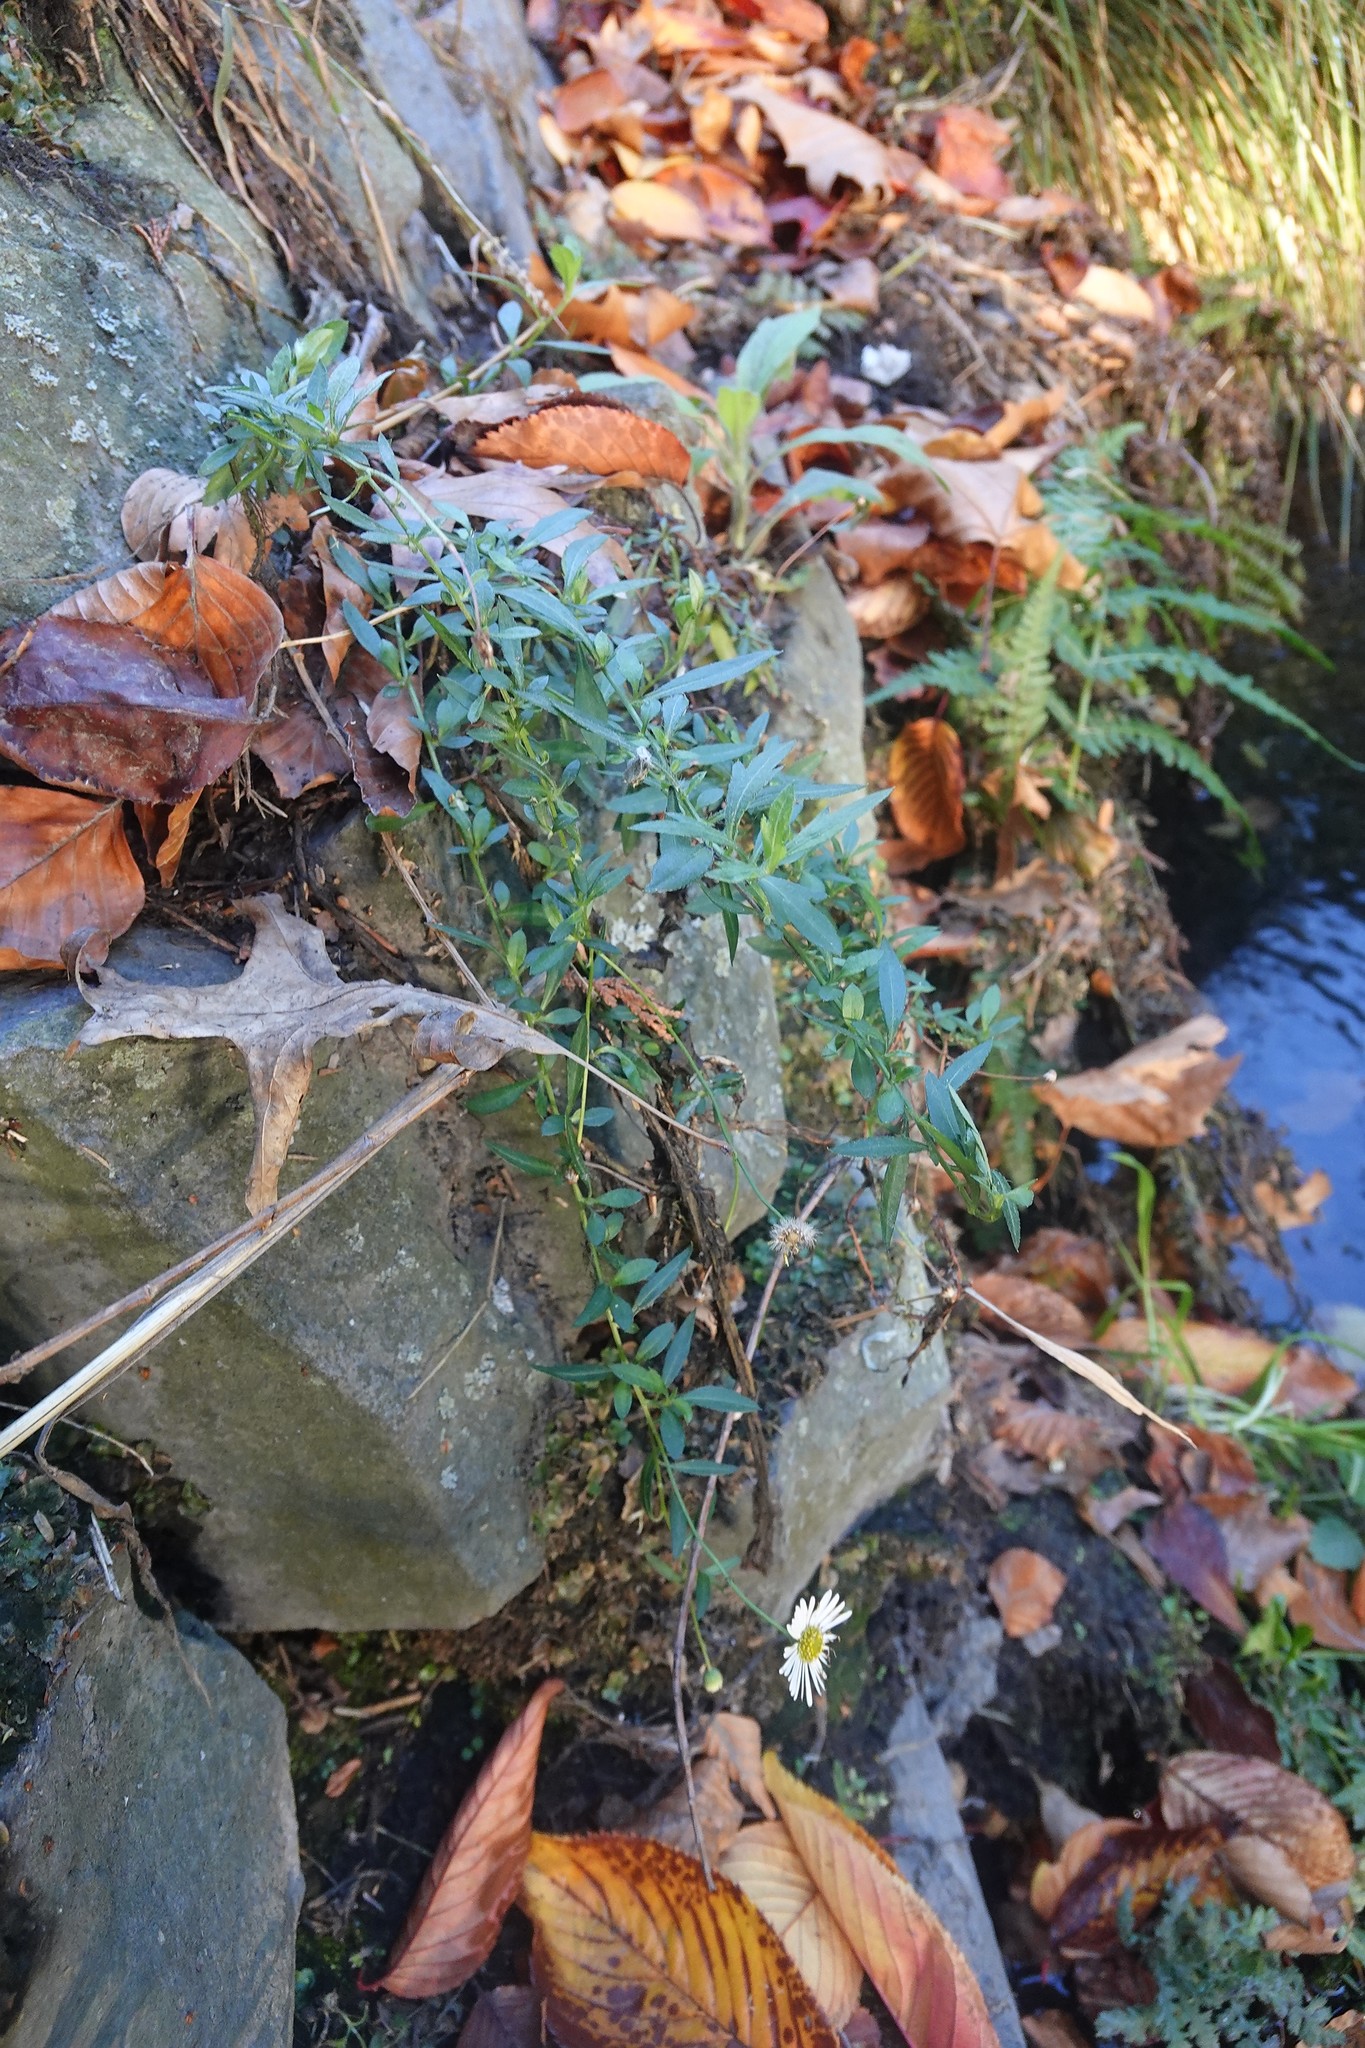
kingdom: Plantae
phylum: Tracheophyta
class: Magnoliopsida
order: Asterales
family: Asteraceae
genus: Erigeron
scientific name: Erigeron karvinskianus
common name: Mexican fleabane
